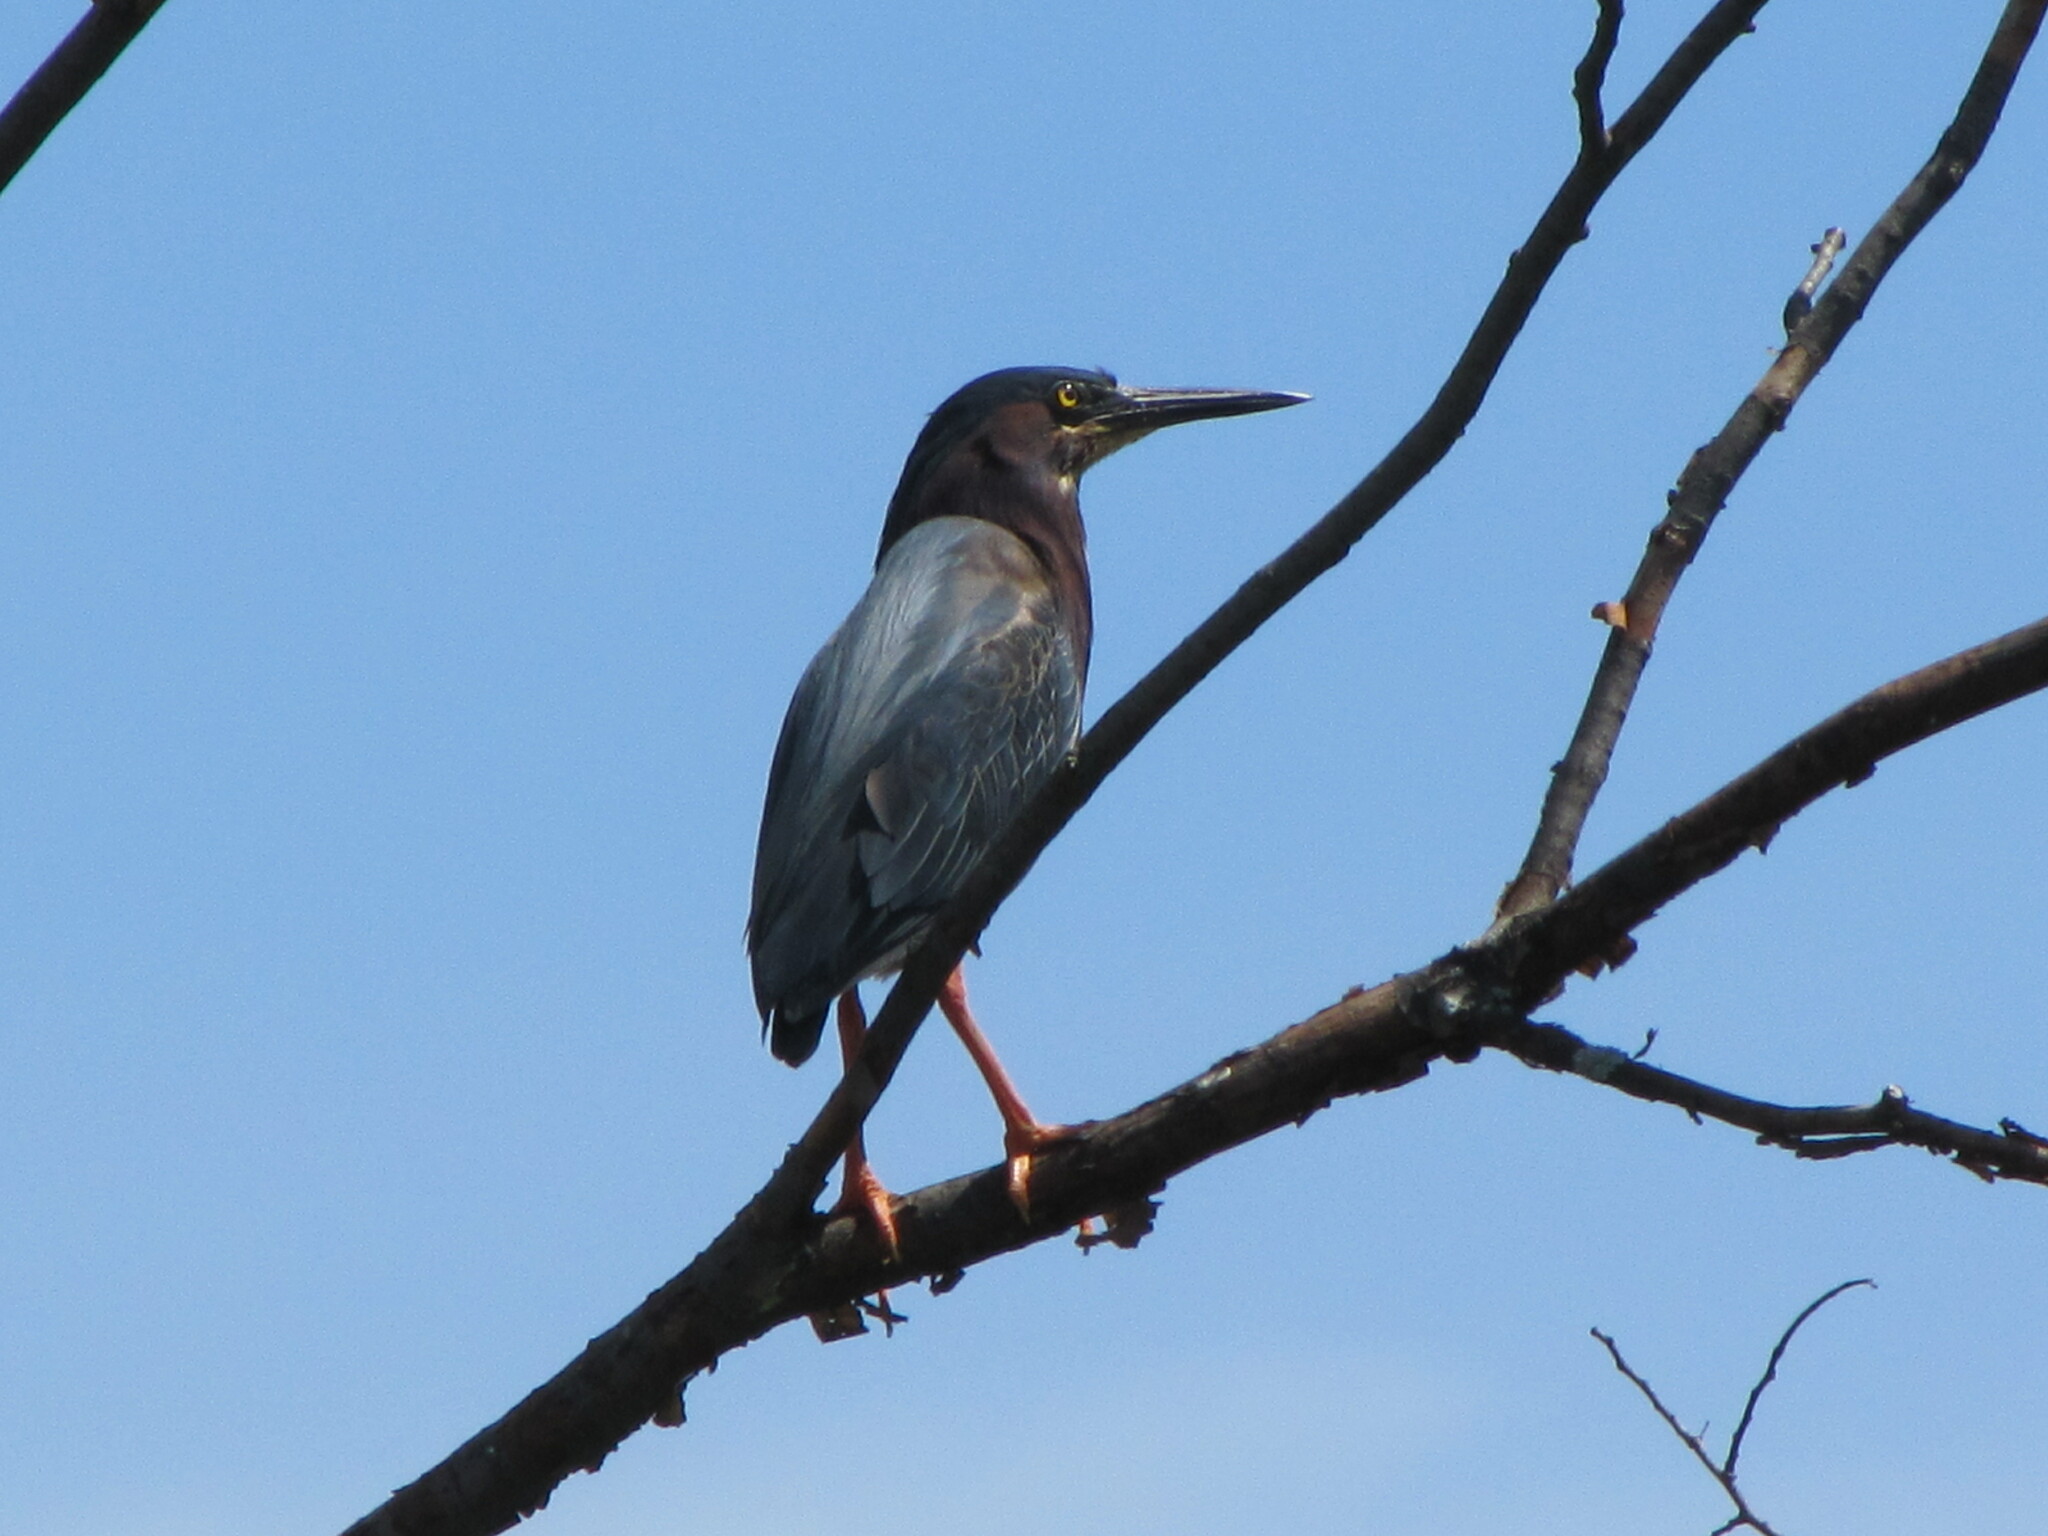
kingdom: Animalia
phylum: Chordata
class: Aves
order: Pelecaniformes
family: Ardeidae
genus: Butorides
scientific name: Butorides virescens
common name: Green heron
